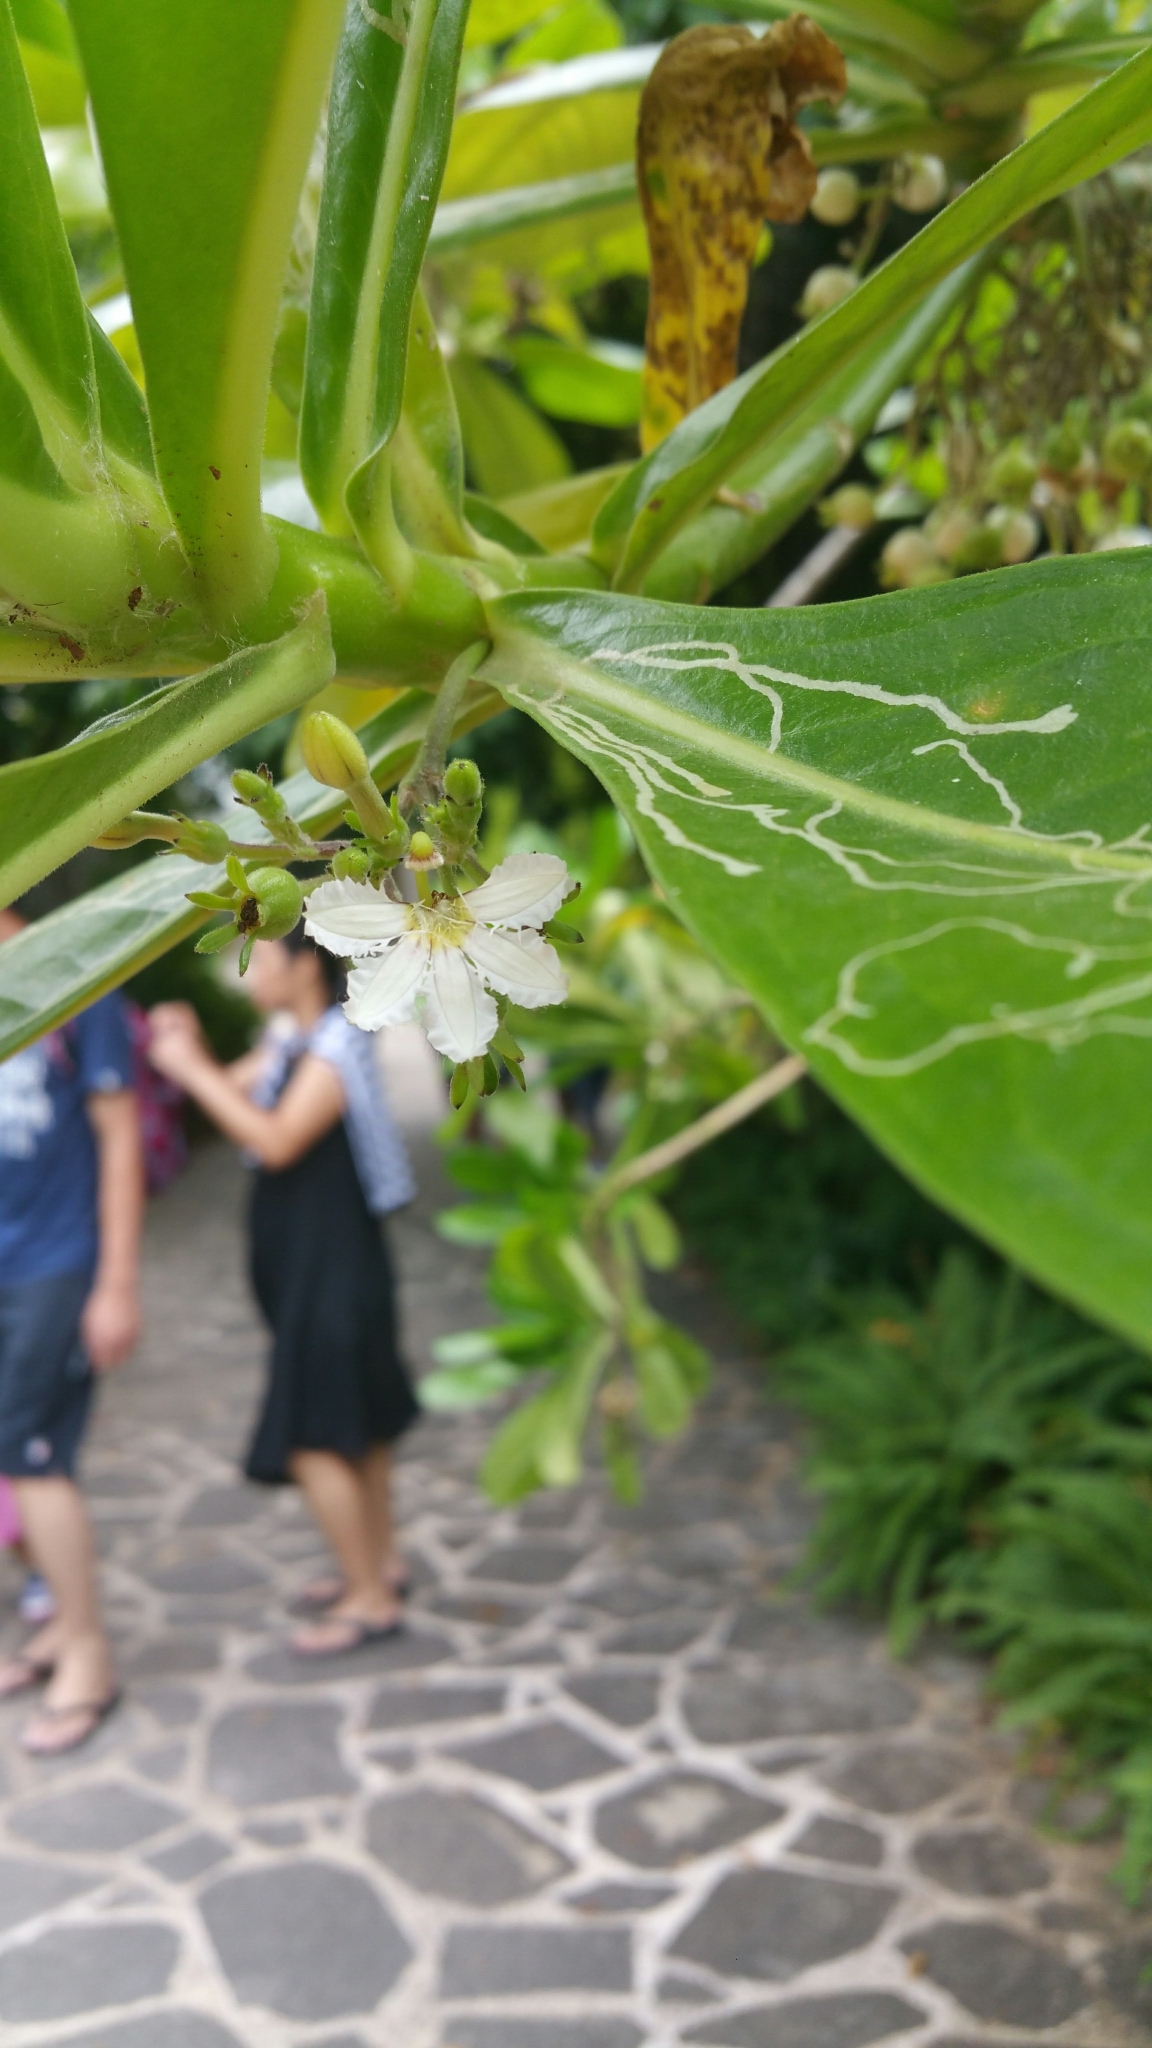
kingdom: Plantae
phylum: Tracheophyta
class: Magnoliopsida
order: Asterales
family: Goodeniaceae
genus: Scaevola
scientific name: Scaevola taccada
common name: Sea lettucetree
